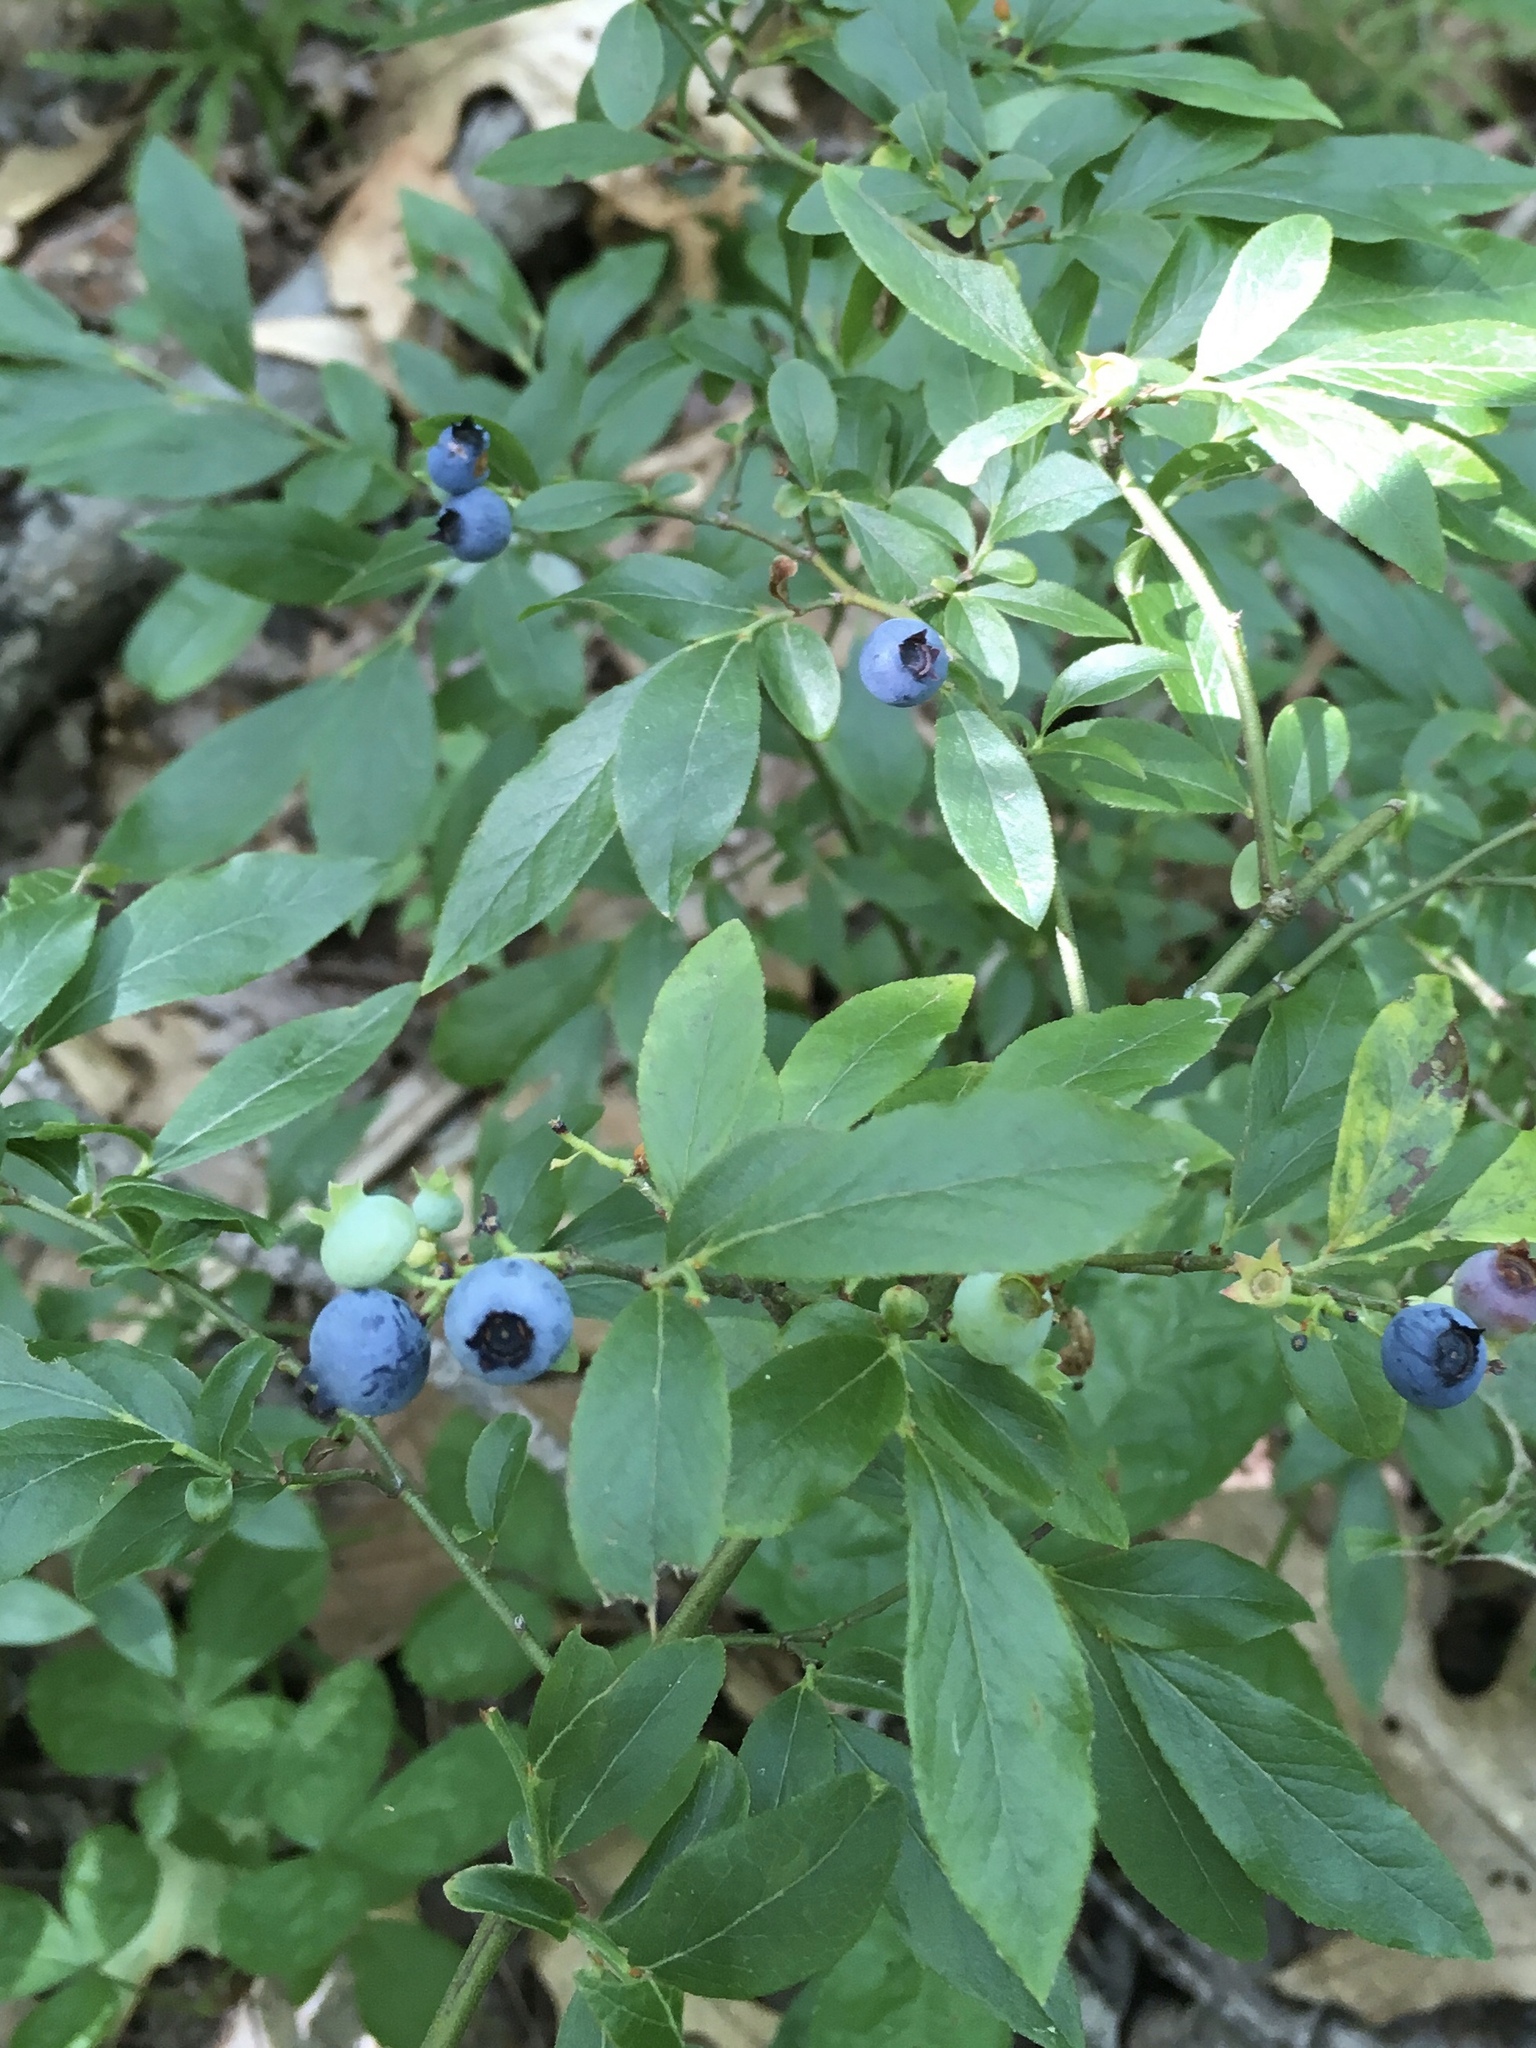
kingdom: Plantae
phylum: Tracheophyta
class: Magnoliopsida
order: Ericales
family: Ericaceae
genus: Vaccinium
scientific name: Vaccinium angustifolium
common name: Early lowbush blueberry
